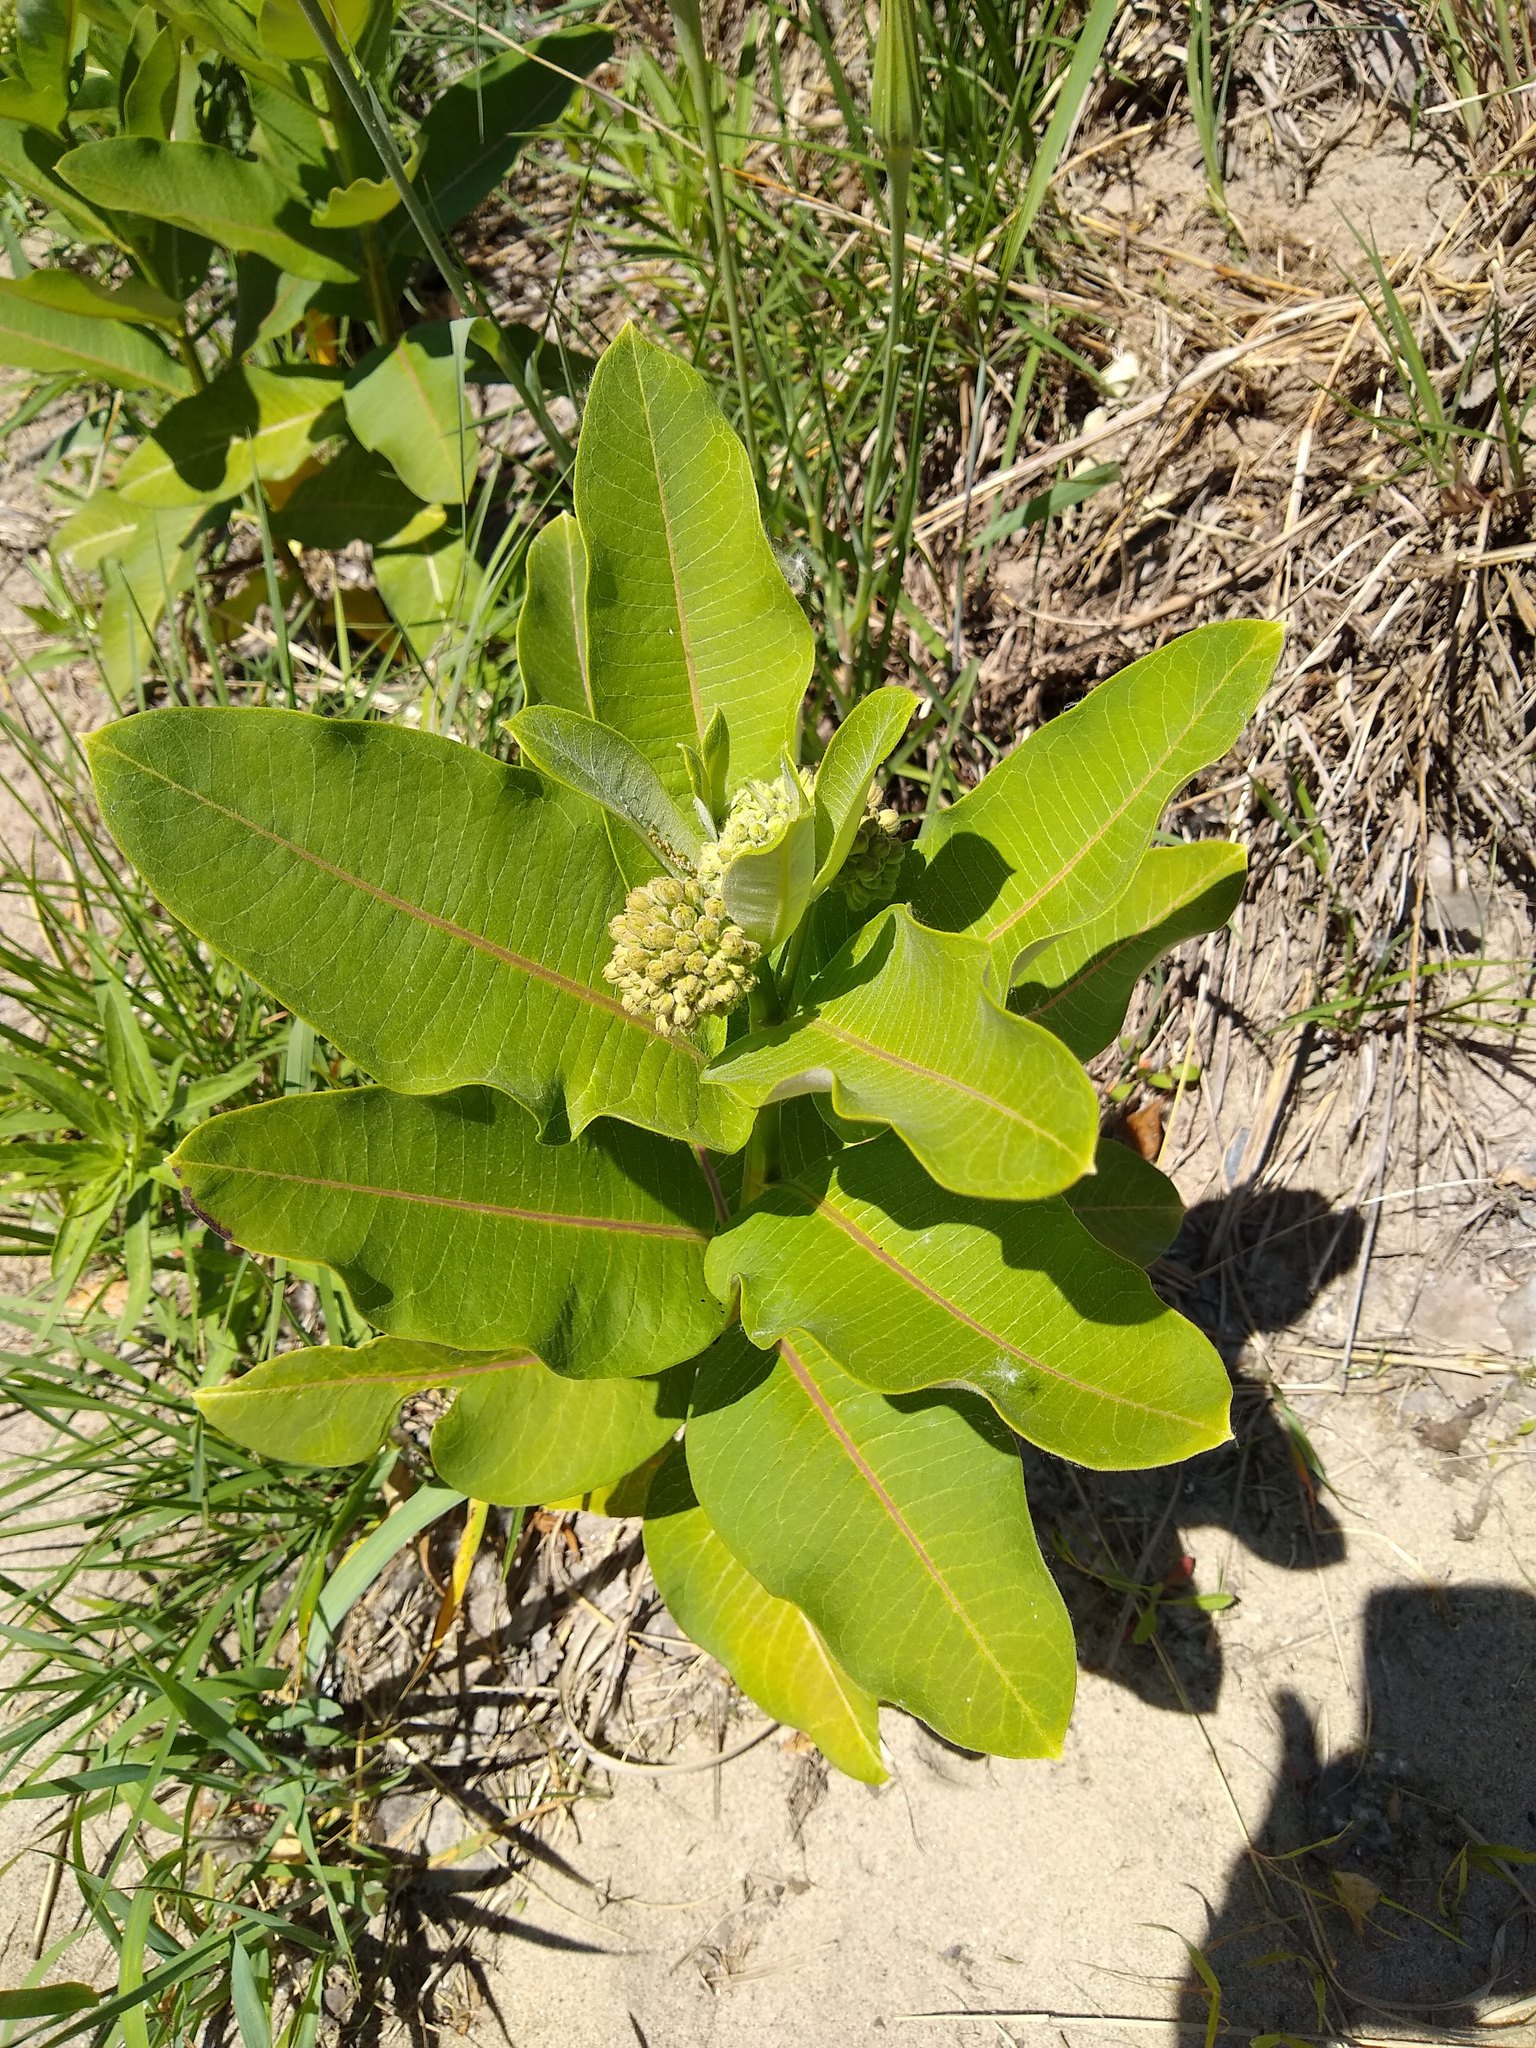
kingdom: Plantae
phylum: Tracheophyta
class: Magnoliopsida
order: Gentianales
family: Apocynaceae
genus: Asclepias
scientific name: Asclepias syriaca
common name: Common milkweed
